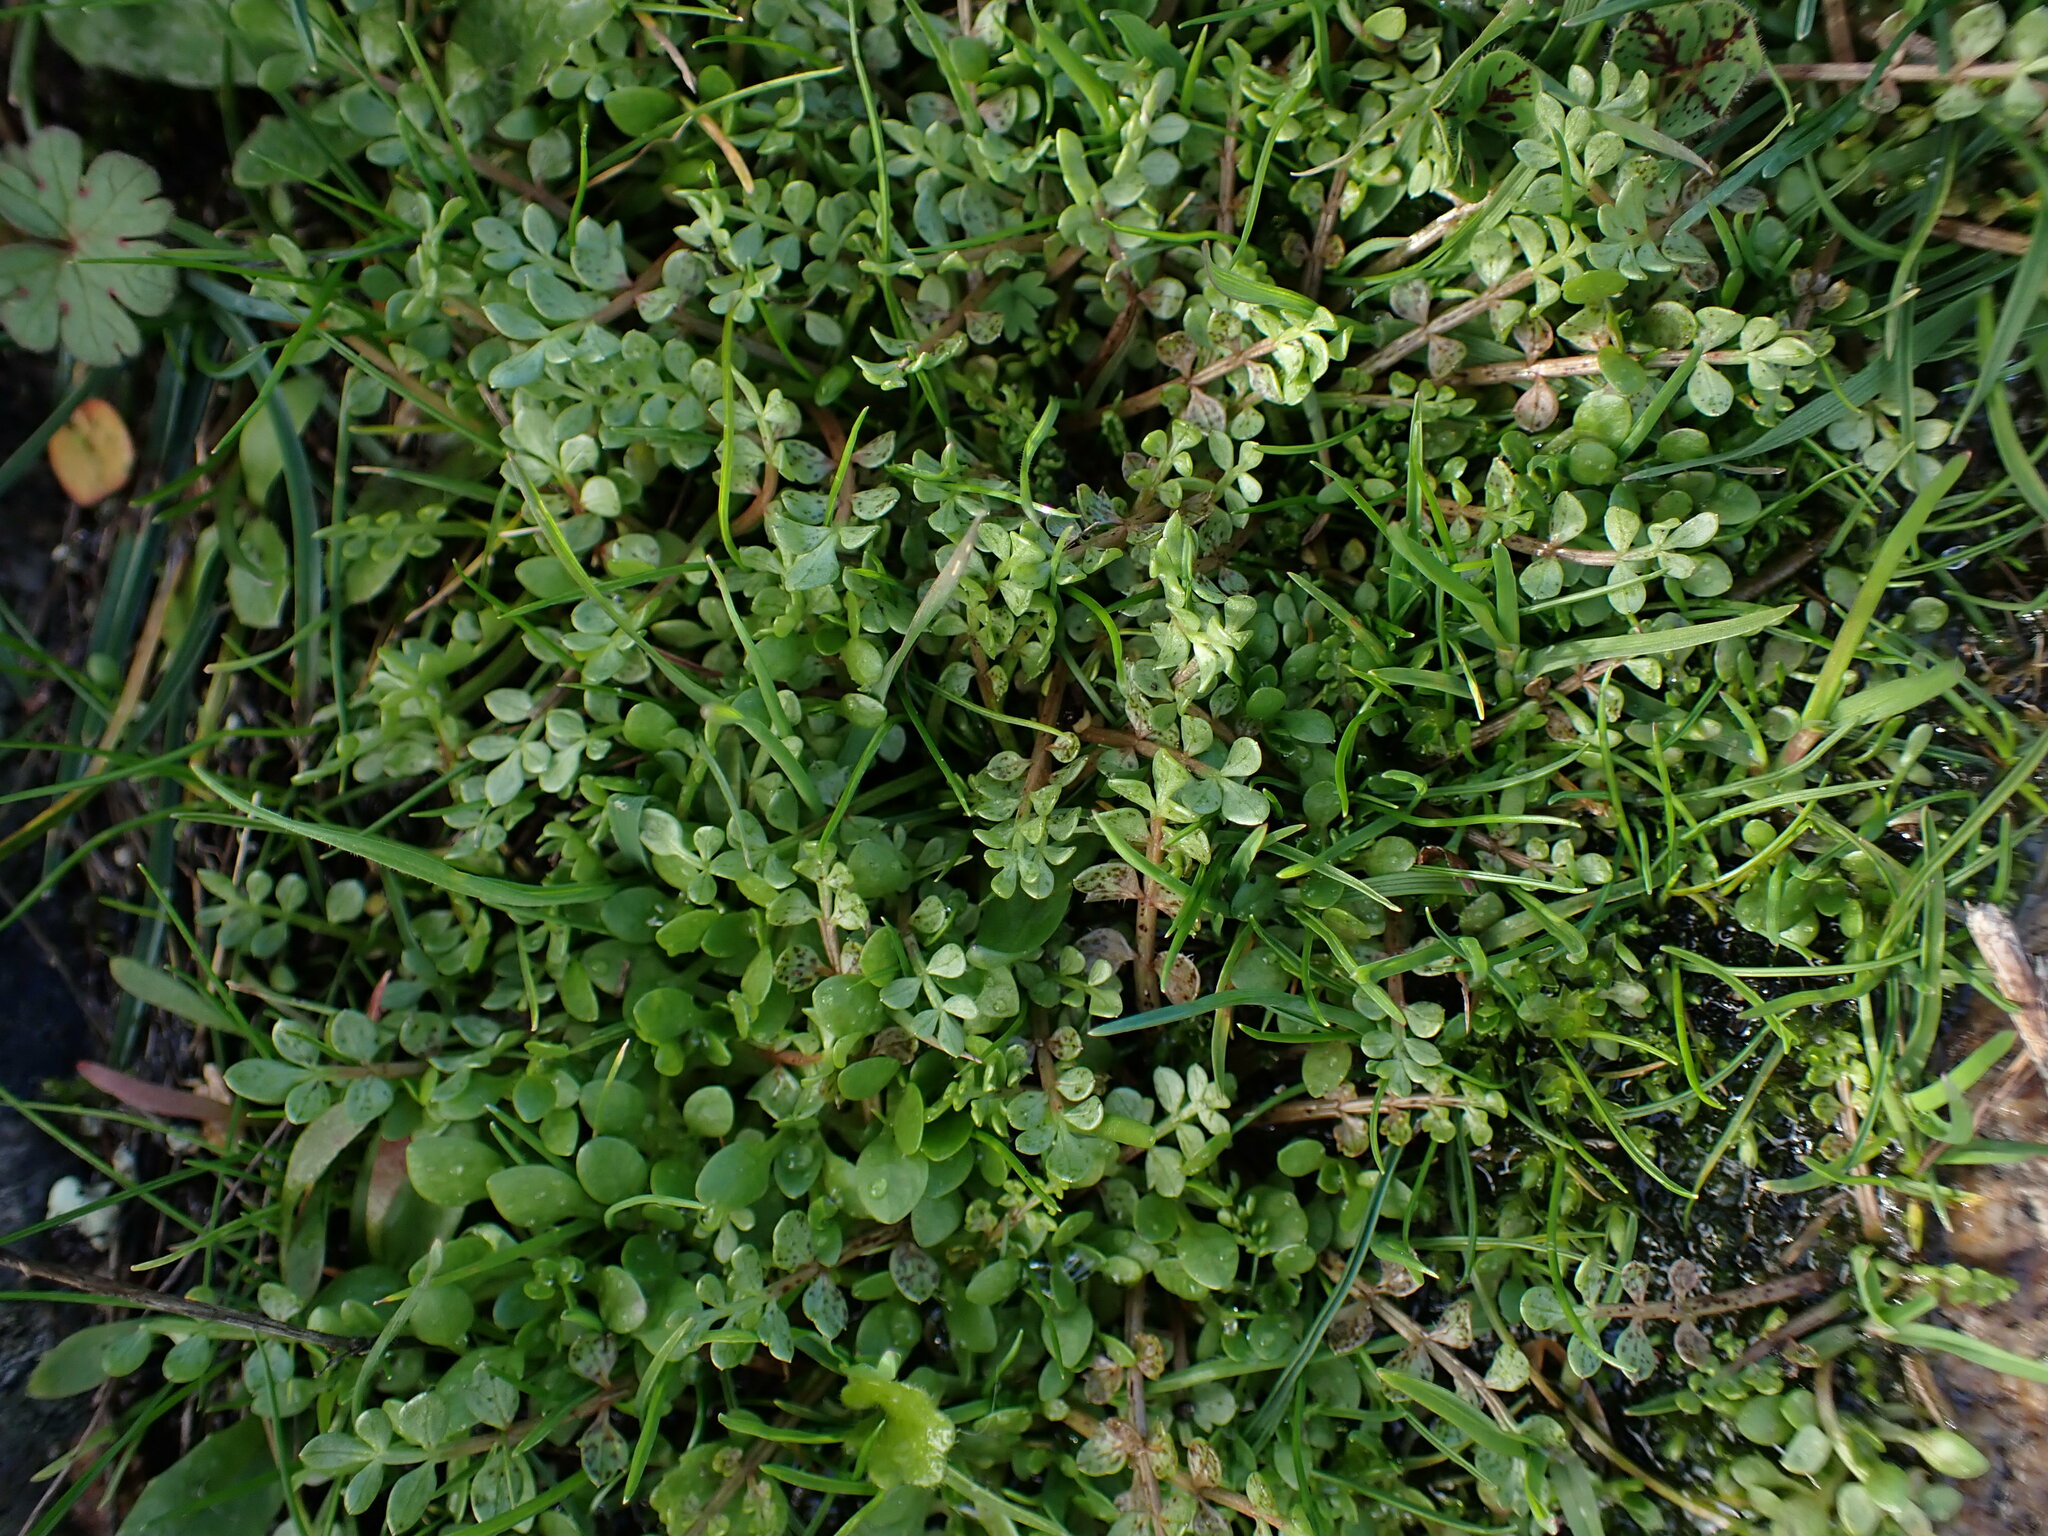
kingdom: Plantae
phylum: Tracheophyta
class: Magnoliopsida
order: Brassicales
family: Limnanthaceae
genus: Limnanthes
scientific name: Limnanthes macounii
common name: Macoun's meadowfoam
